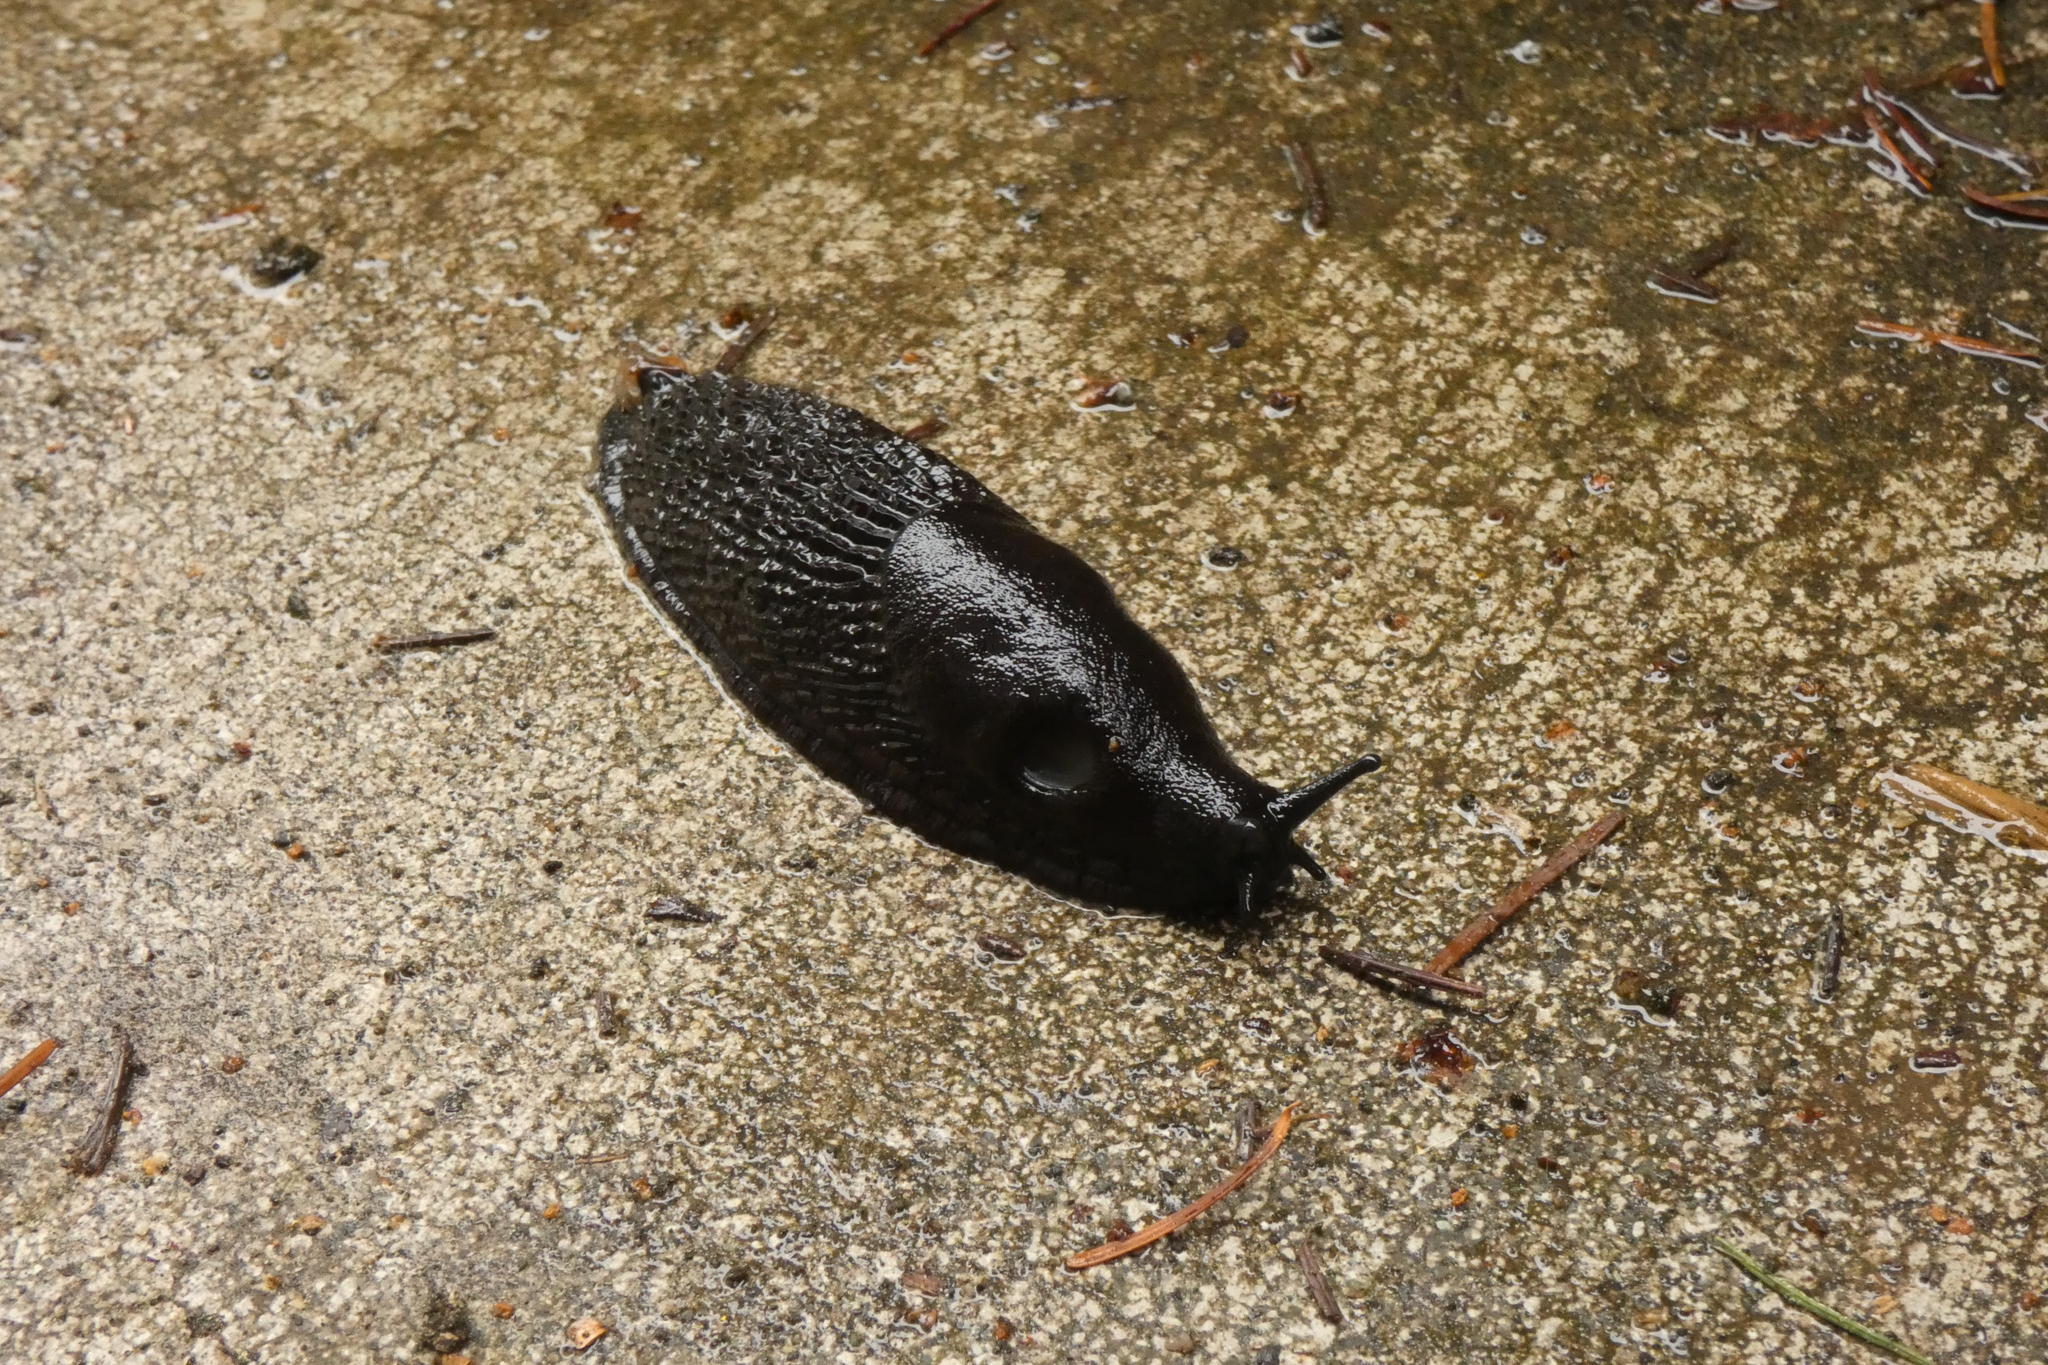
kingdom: Animalia
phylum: Mollusca
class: Gastropoda
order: Stylommatophora
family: Arionidae
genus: Arion
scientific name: Arion
